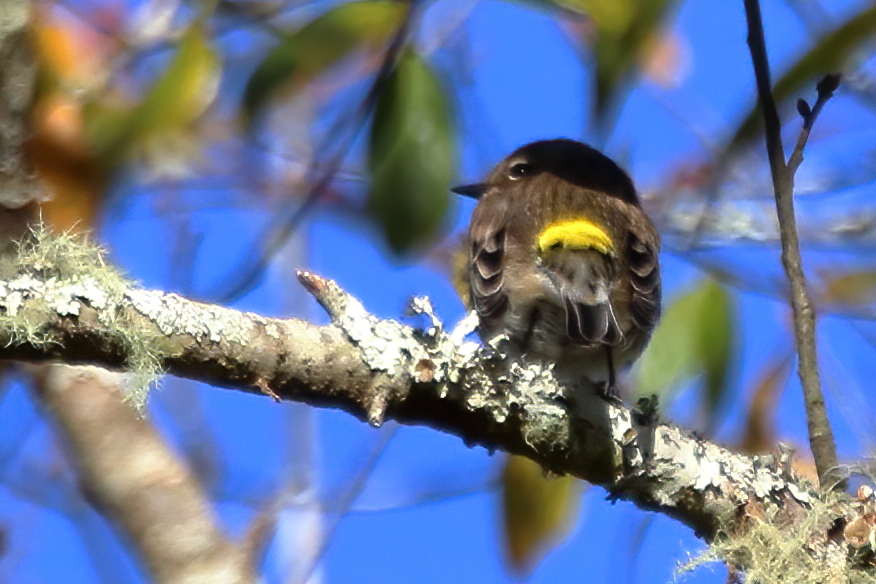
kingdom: Animalia
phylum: Chordata
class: Aves
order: Passeriformes
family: Parulidae
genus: Setophaga
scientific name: Setophaga coronata
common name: Myrtle warbler
